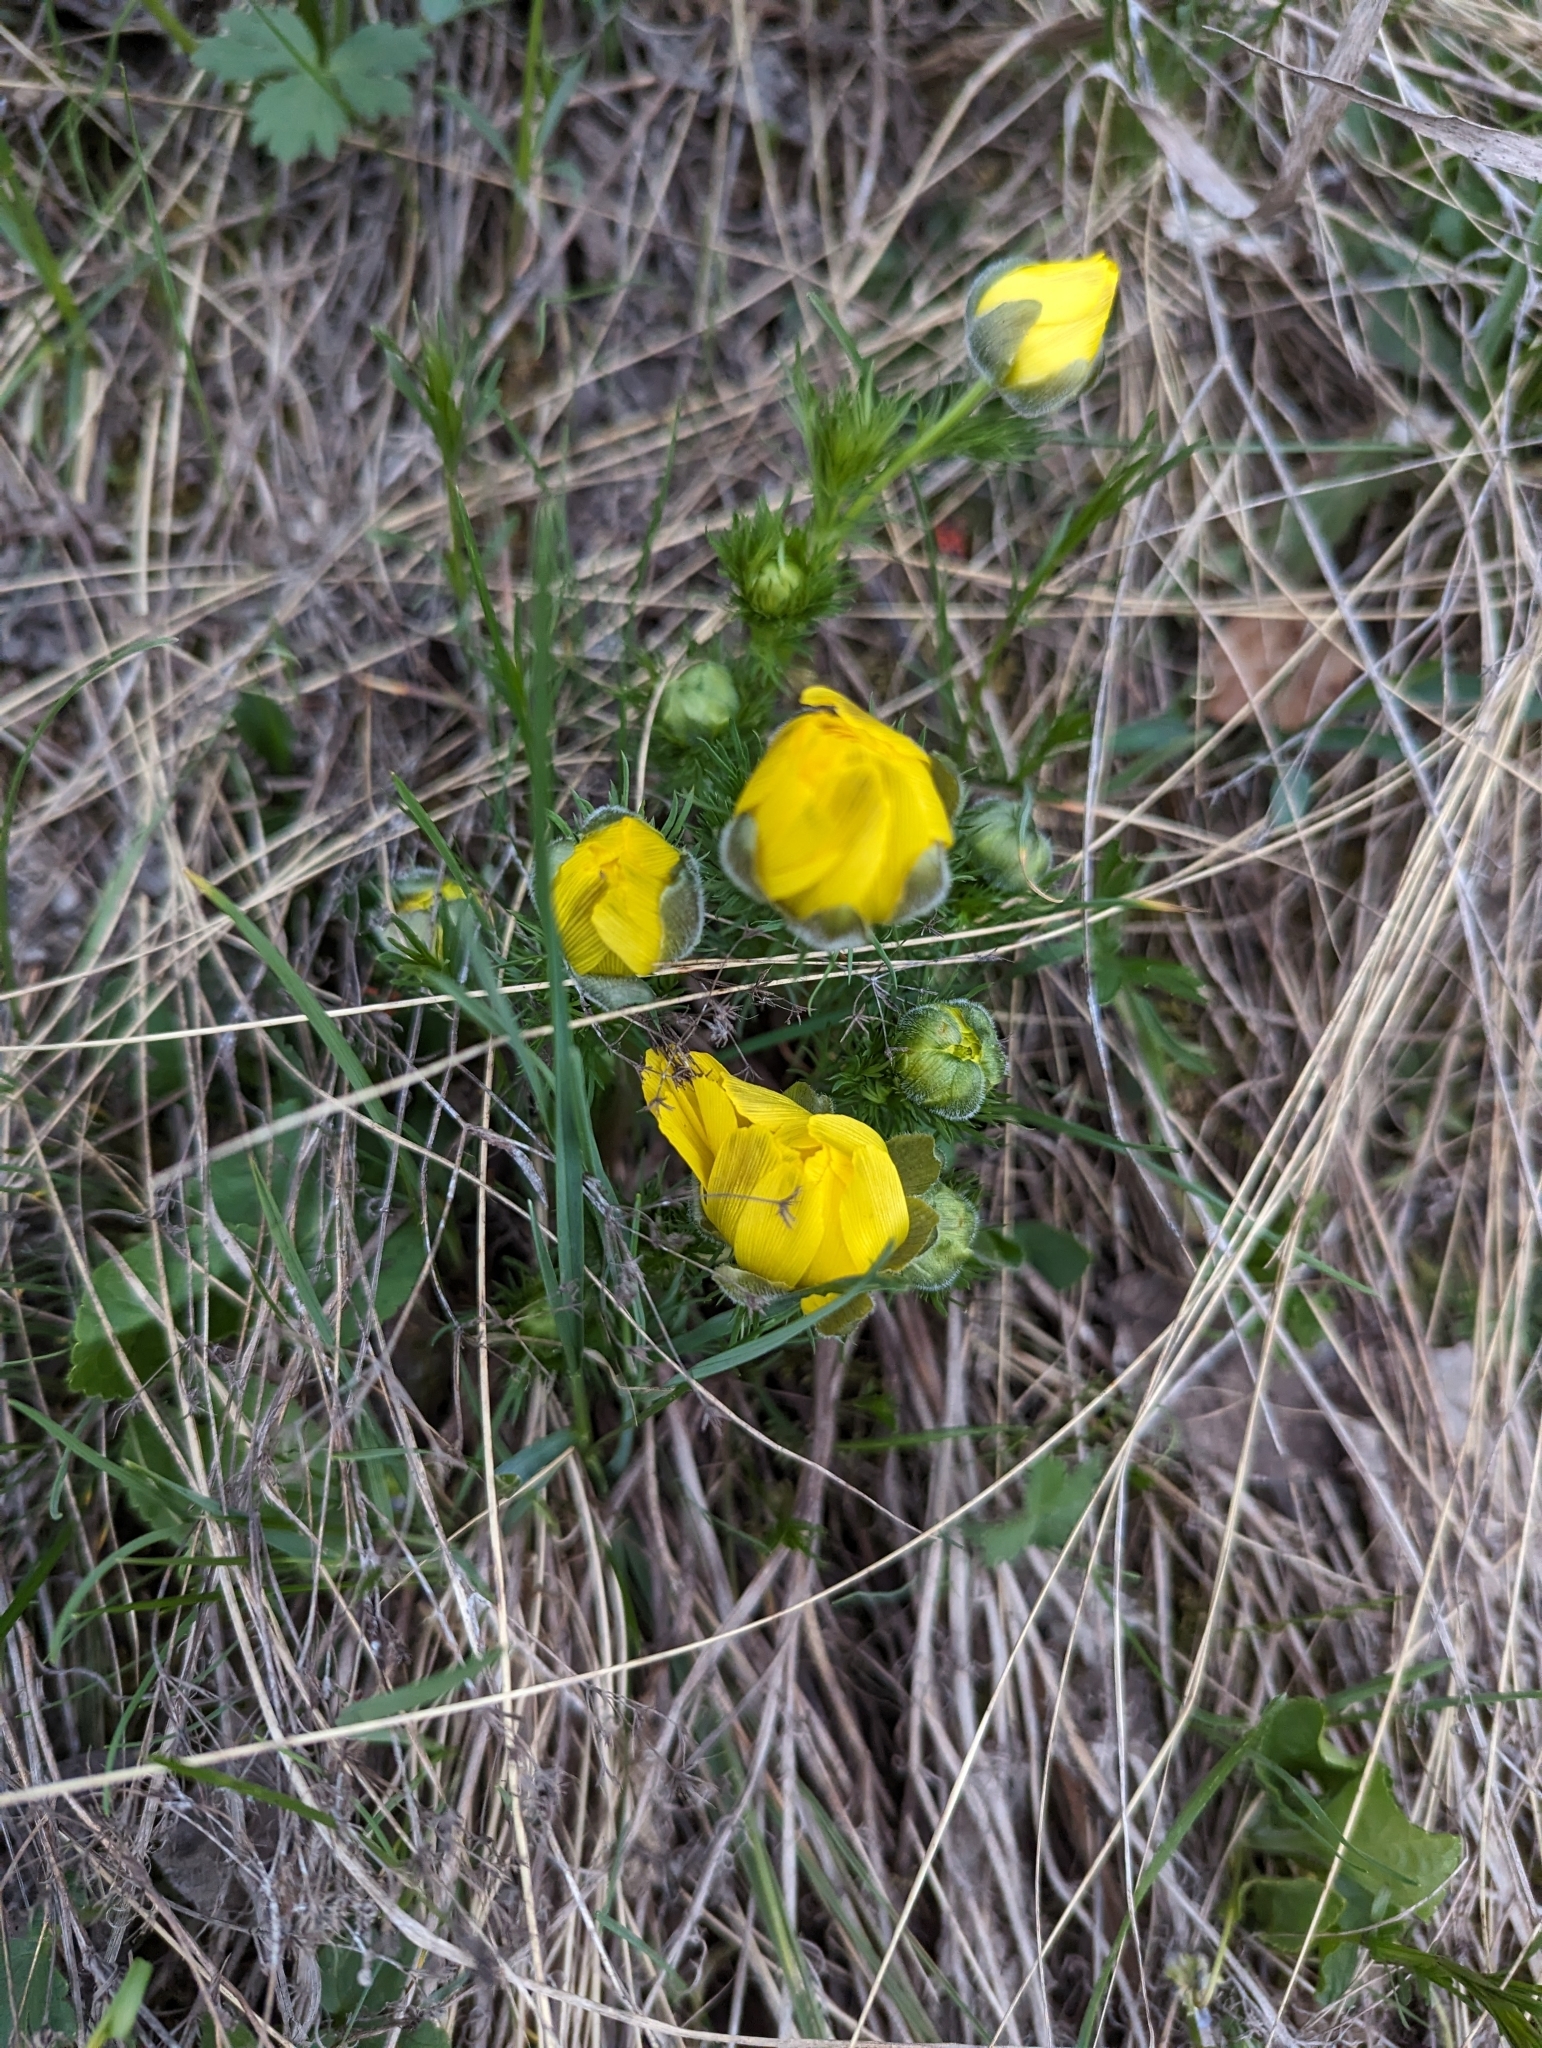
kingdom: Plantae
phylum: Tracheophyta
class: Magnoliopsida
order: Ranunculales
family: Ranunculaceae
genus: Adonis
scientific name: Adonis vernalis
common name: Yellow pheasants-eye
